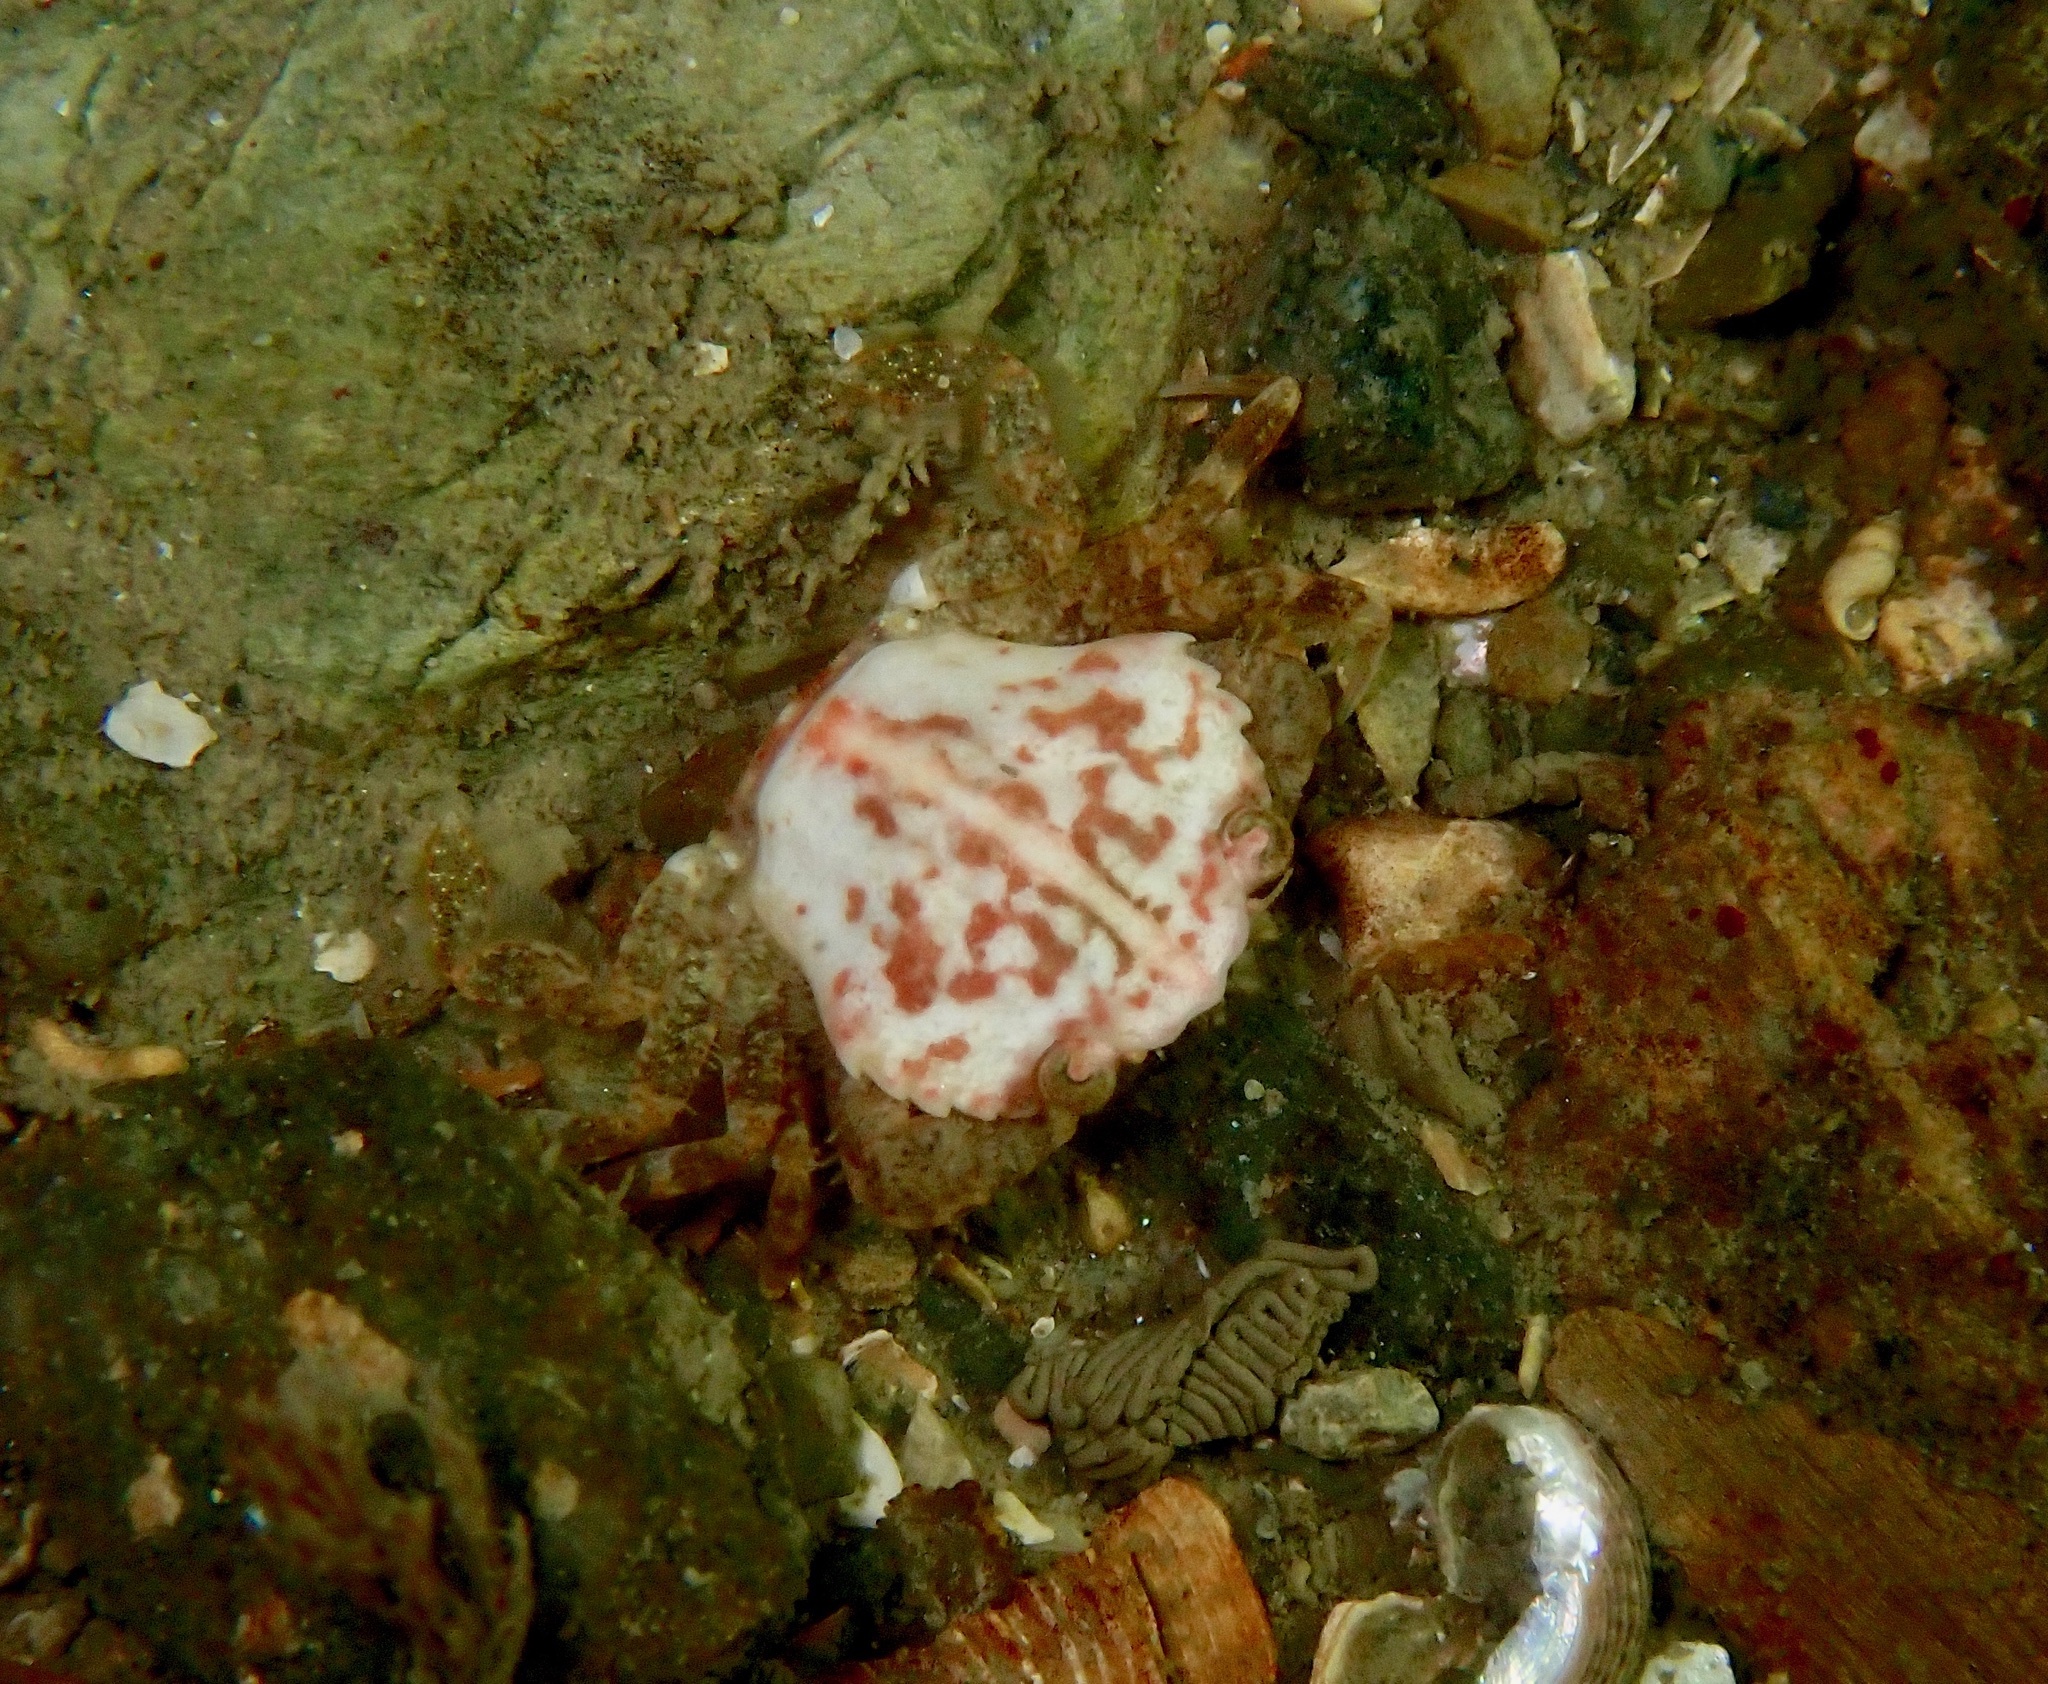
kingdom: Animalia
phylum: Arthropoda
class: Malacostraca
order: Decapoda
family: Polybiidae
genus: Liocarcinus
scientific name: Liocarcinus pusillus
